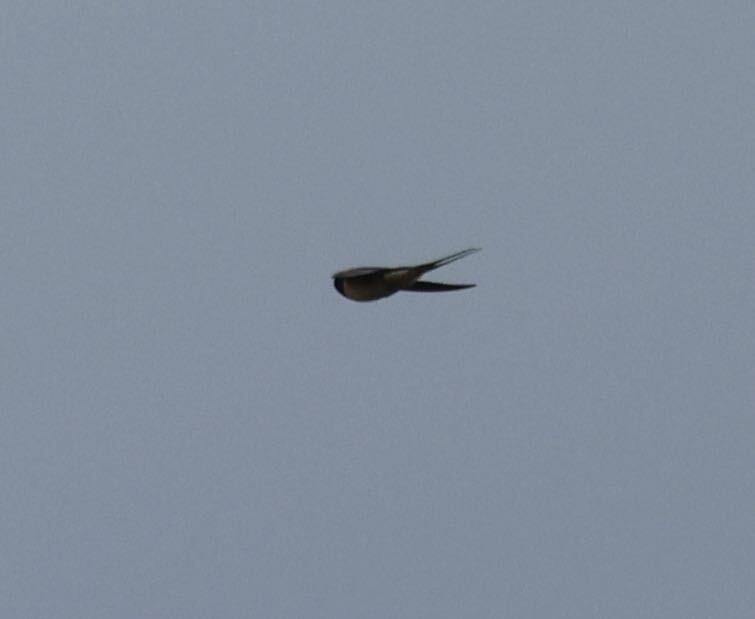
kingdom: Animalia
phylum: Chordata
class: Aves
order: Passeriformes
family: Hirundinidae
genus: Hirundo
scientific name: Hirundo rustica
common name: Barn swallow
